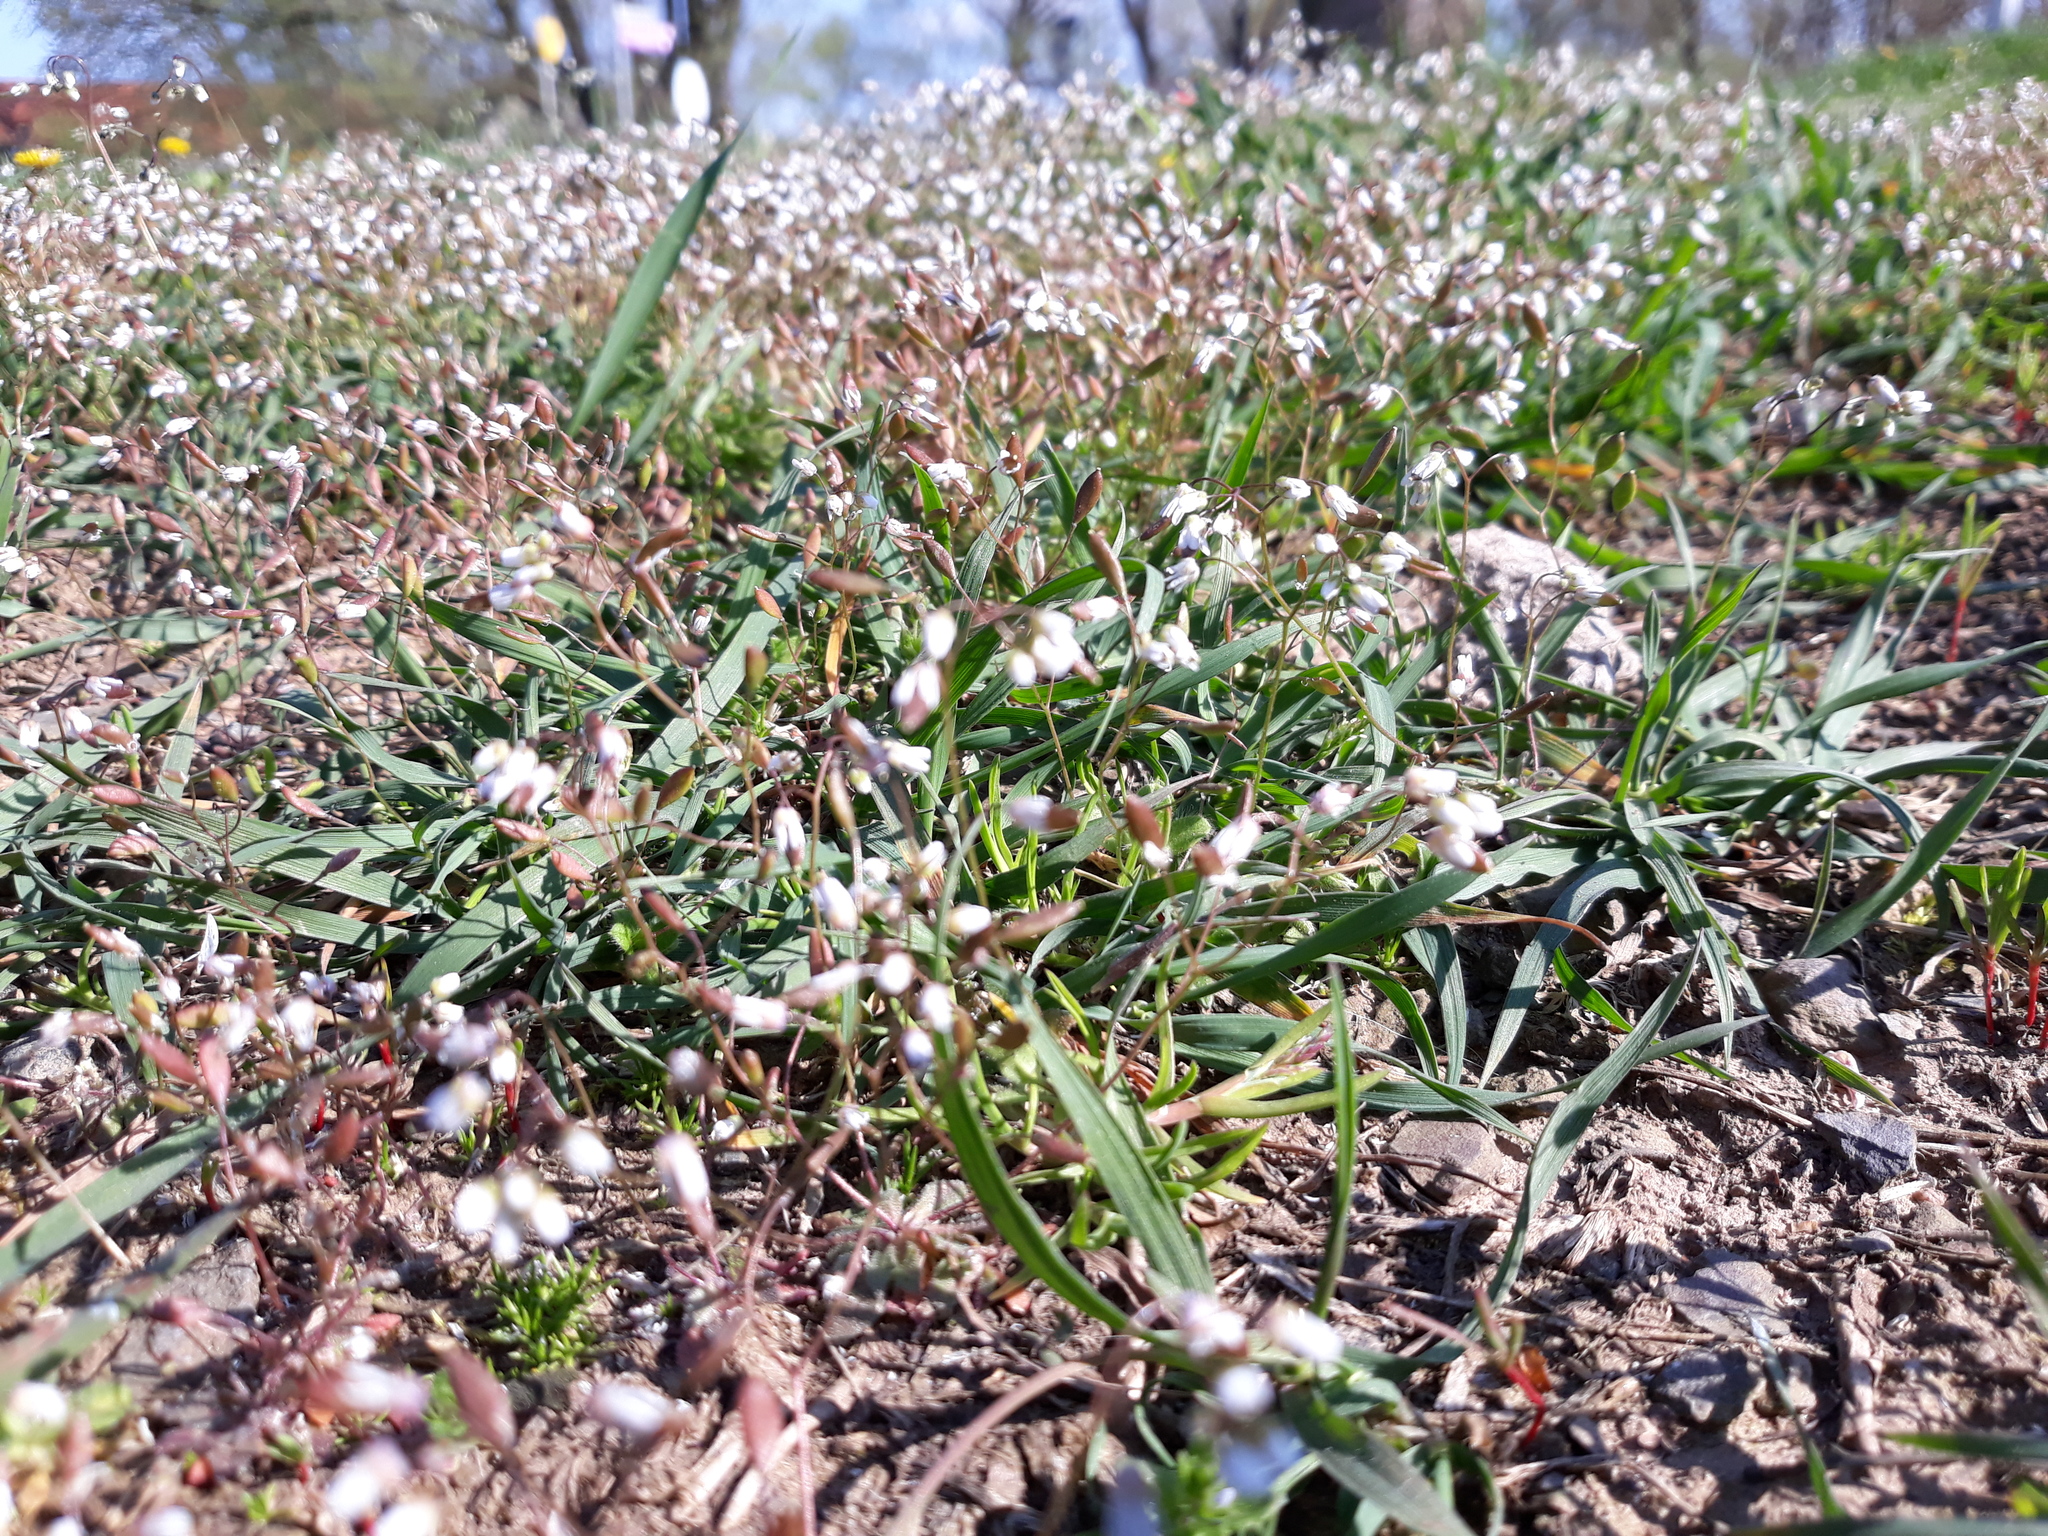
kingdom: Plantae
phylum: Tracheophyta
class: Magnoliopsida
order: Brassicales
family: Brassicaceae
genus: Draba
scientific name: Draba verna
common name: Spring draba
